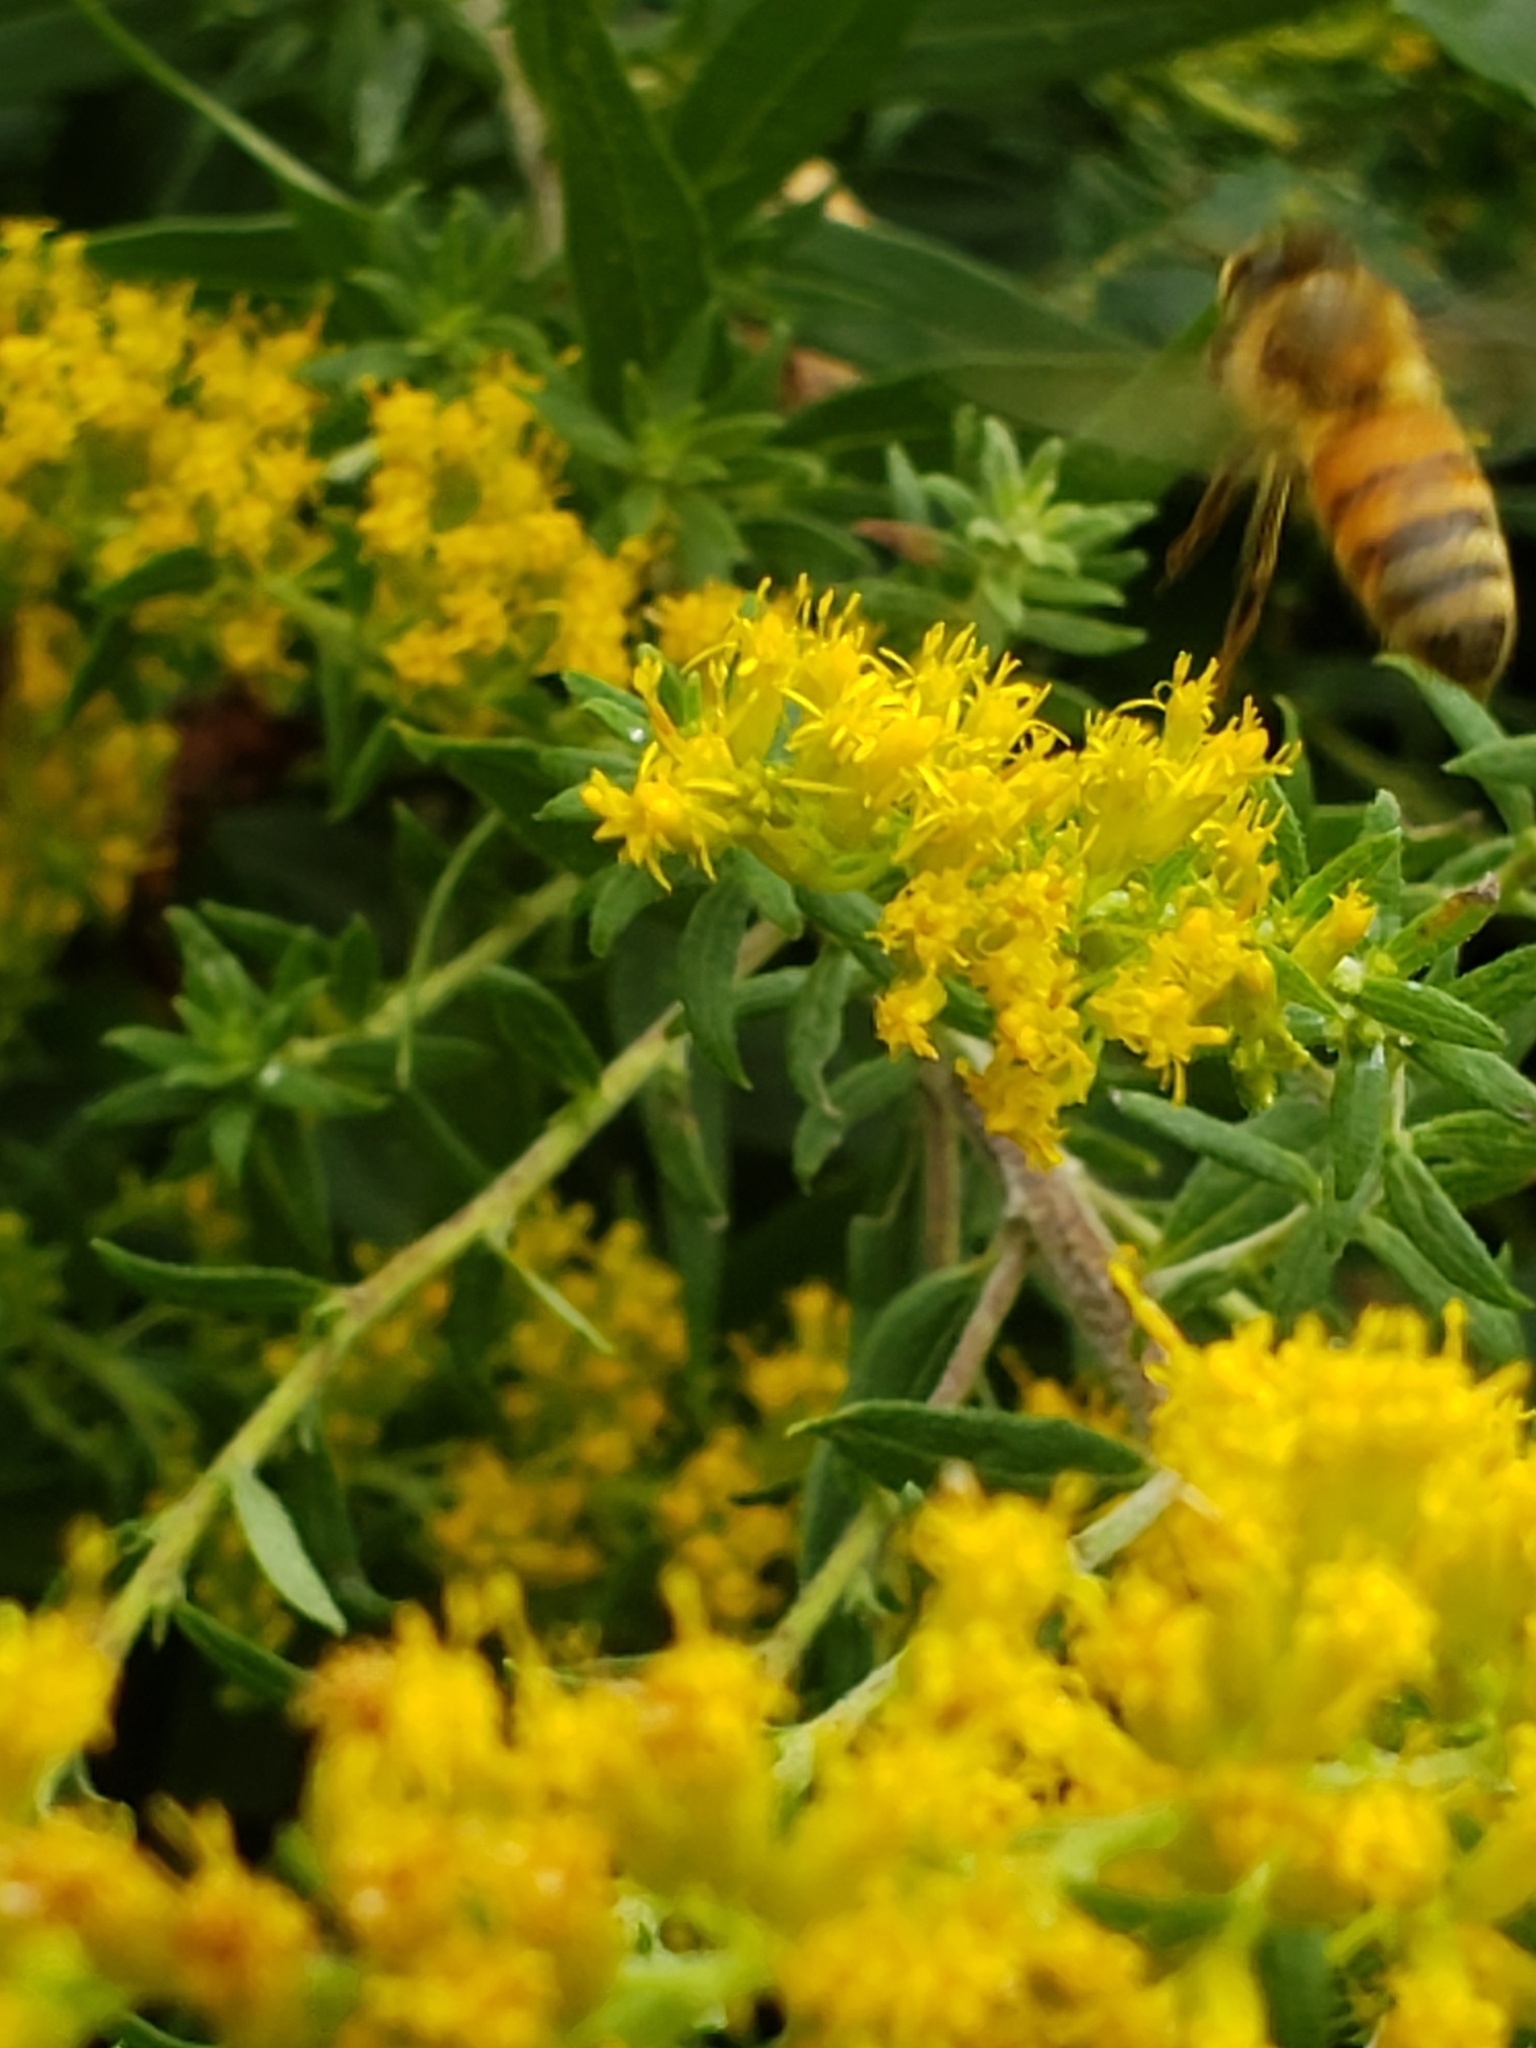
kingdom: Animalia
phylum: Arthropoda
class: Insecta
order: Hymenoptera
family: Apidae
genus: Apis
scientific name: Apis mellifera
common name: Honey bee
